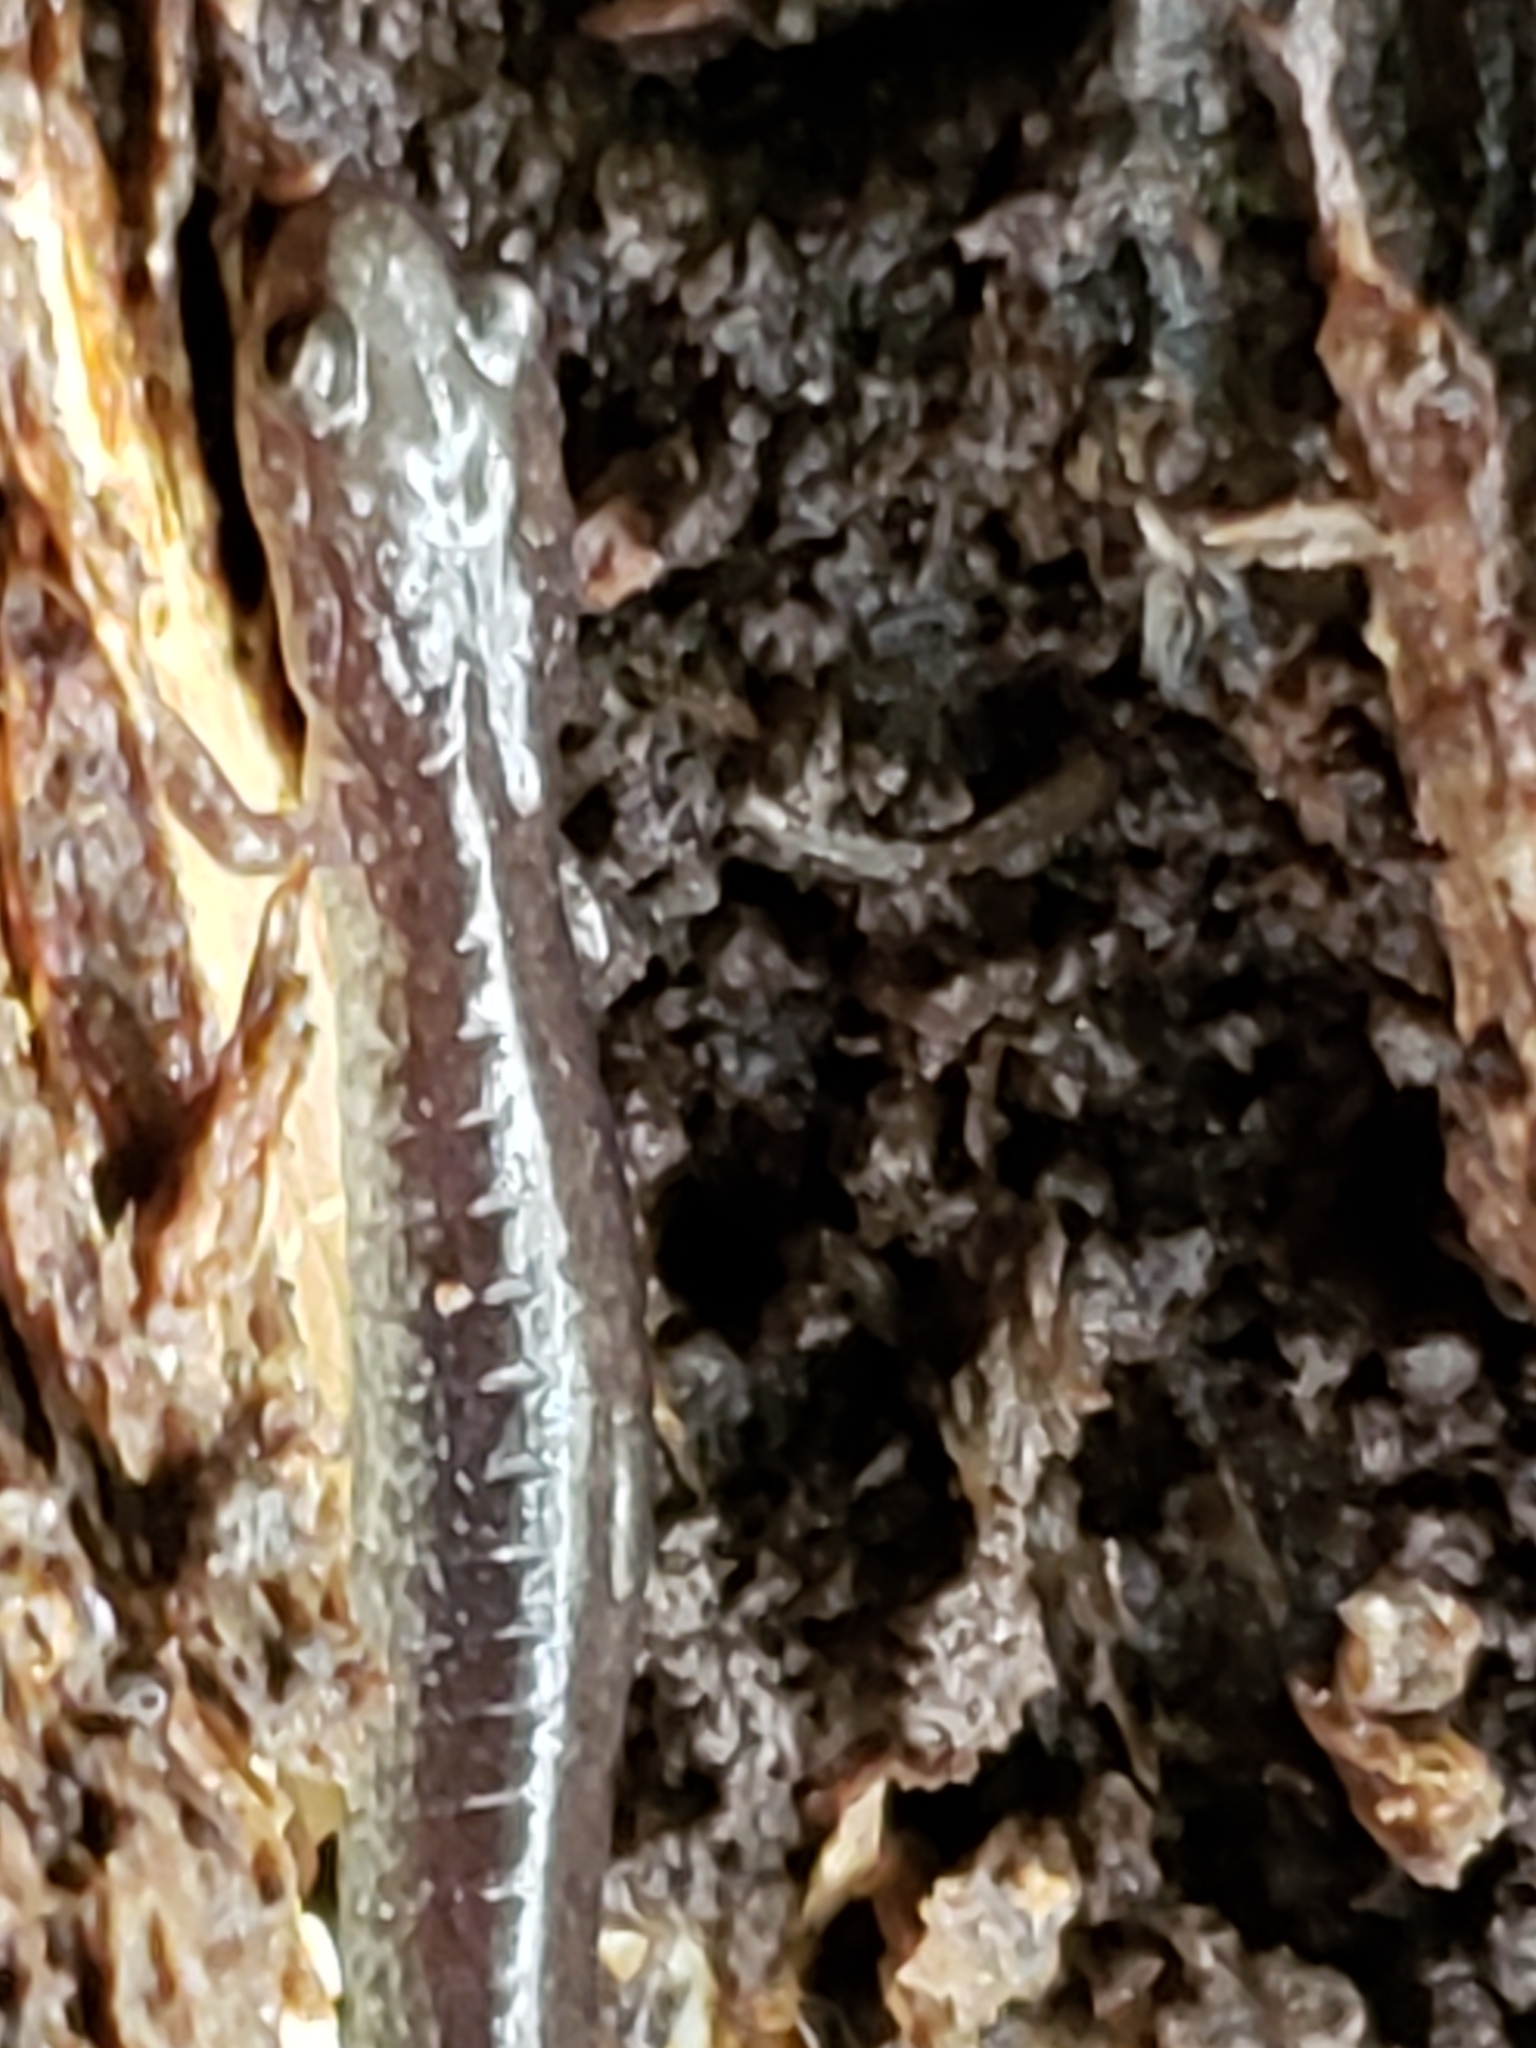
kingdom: Animalia
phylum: Chordata
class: Amphibia
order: Caudata
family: Plethodontidae
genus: Plethodon
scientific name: Plethodon cinereus
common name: Redback salamander
